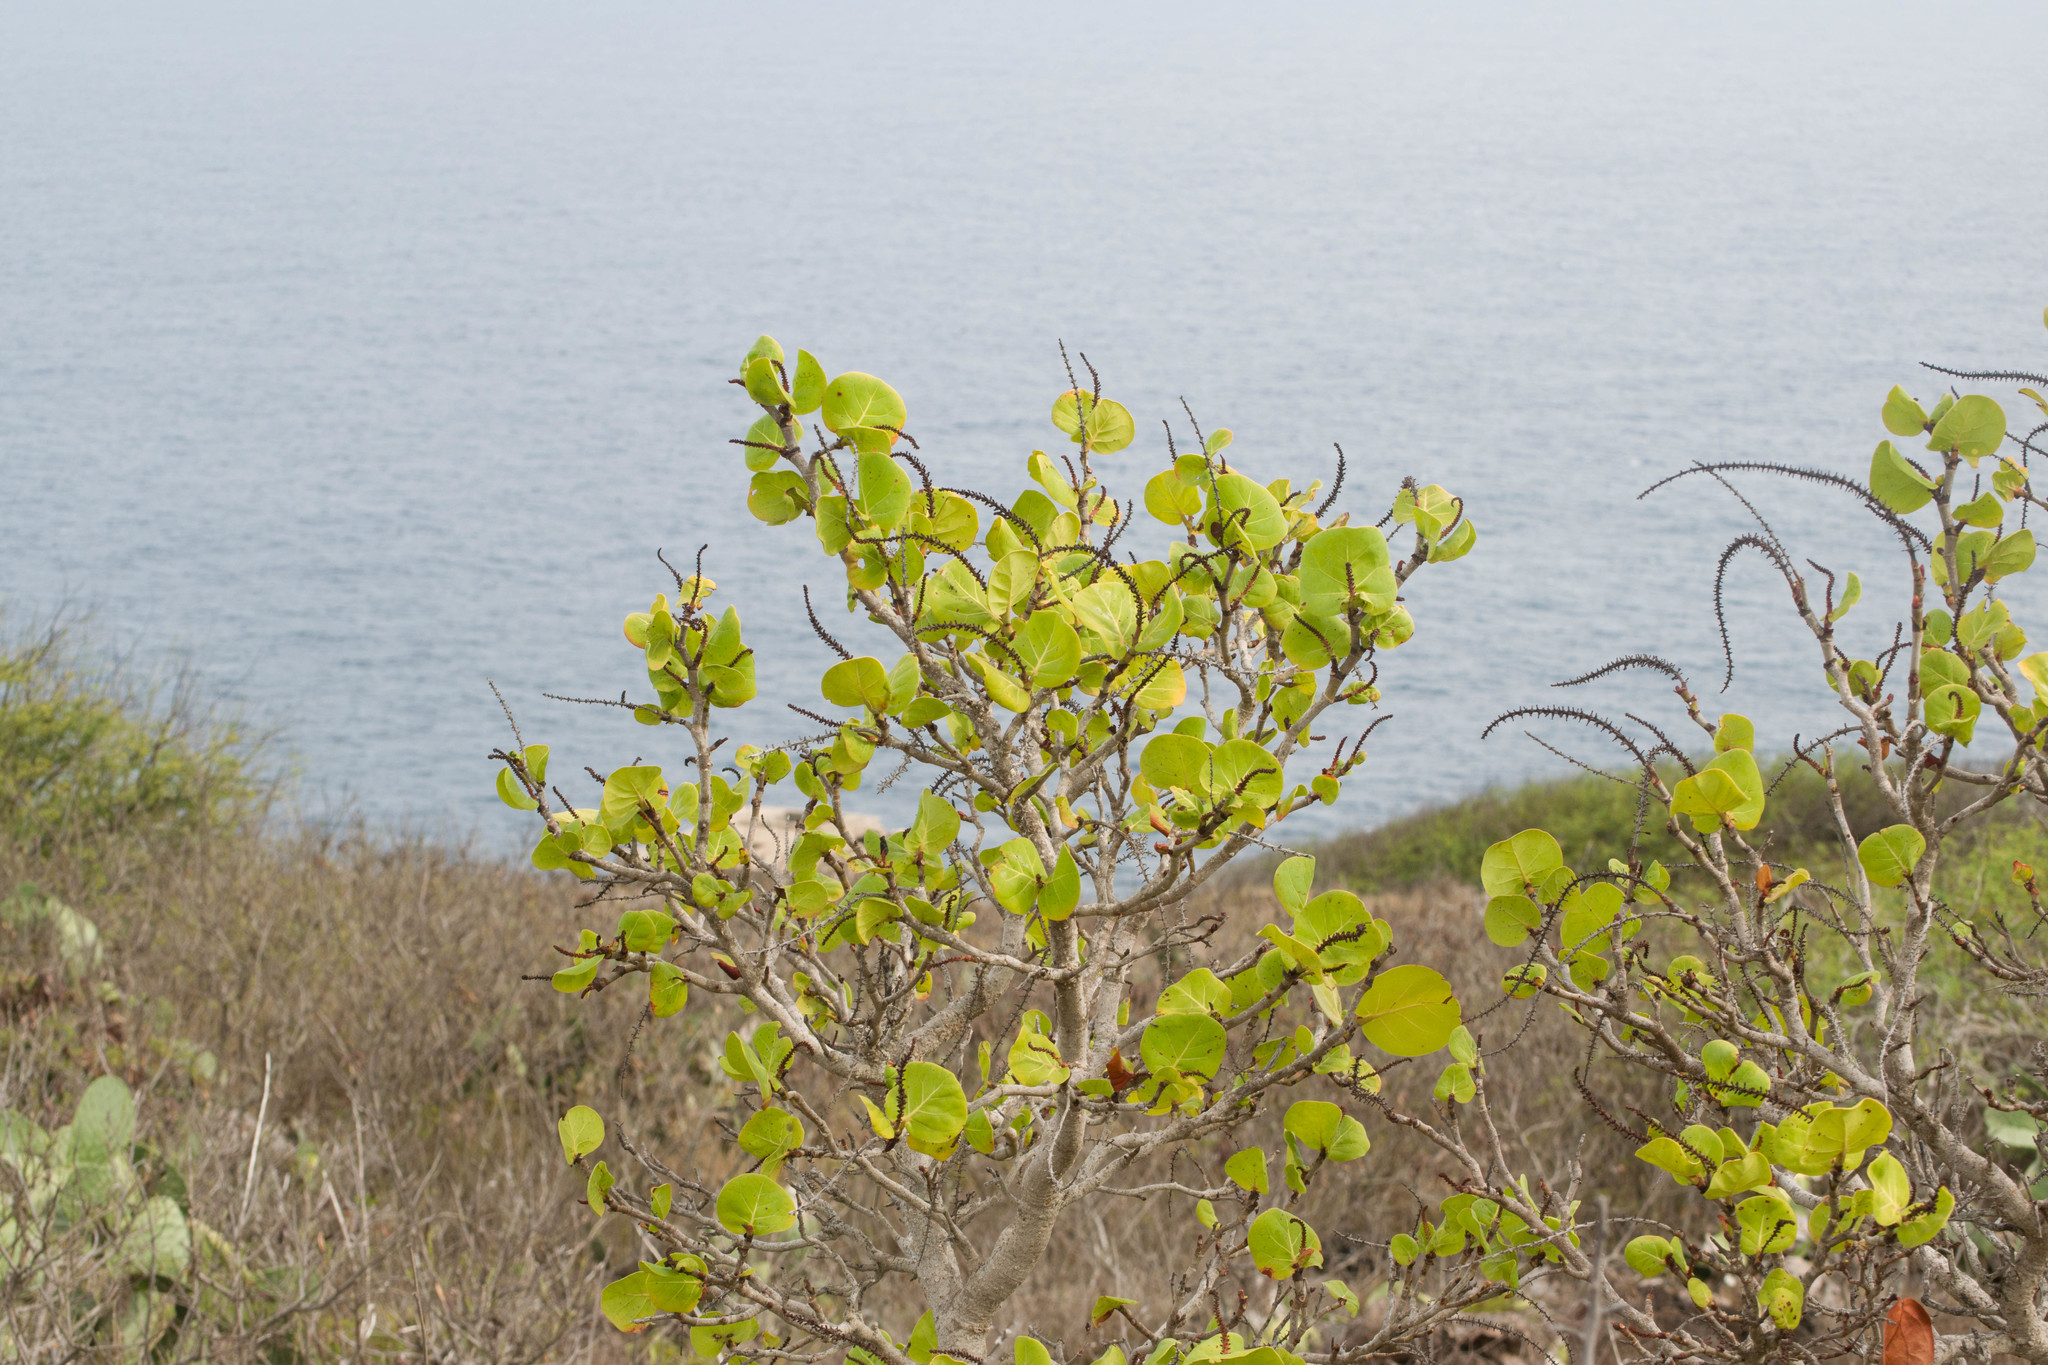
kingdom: Plantae
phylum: Tracheophyta
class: Magnoliopsida
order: Caryophyllales
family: Polygonaceae
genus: Coccoloba
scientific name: Coccoloba uvifera
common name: Seagrape
